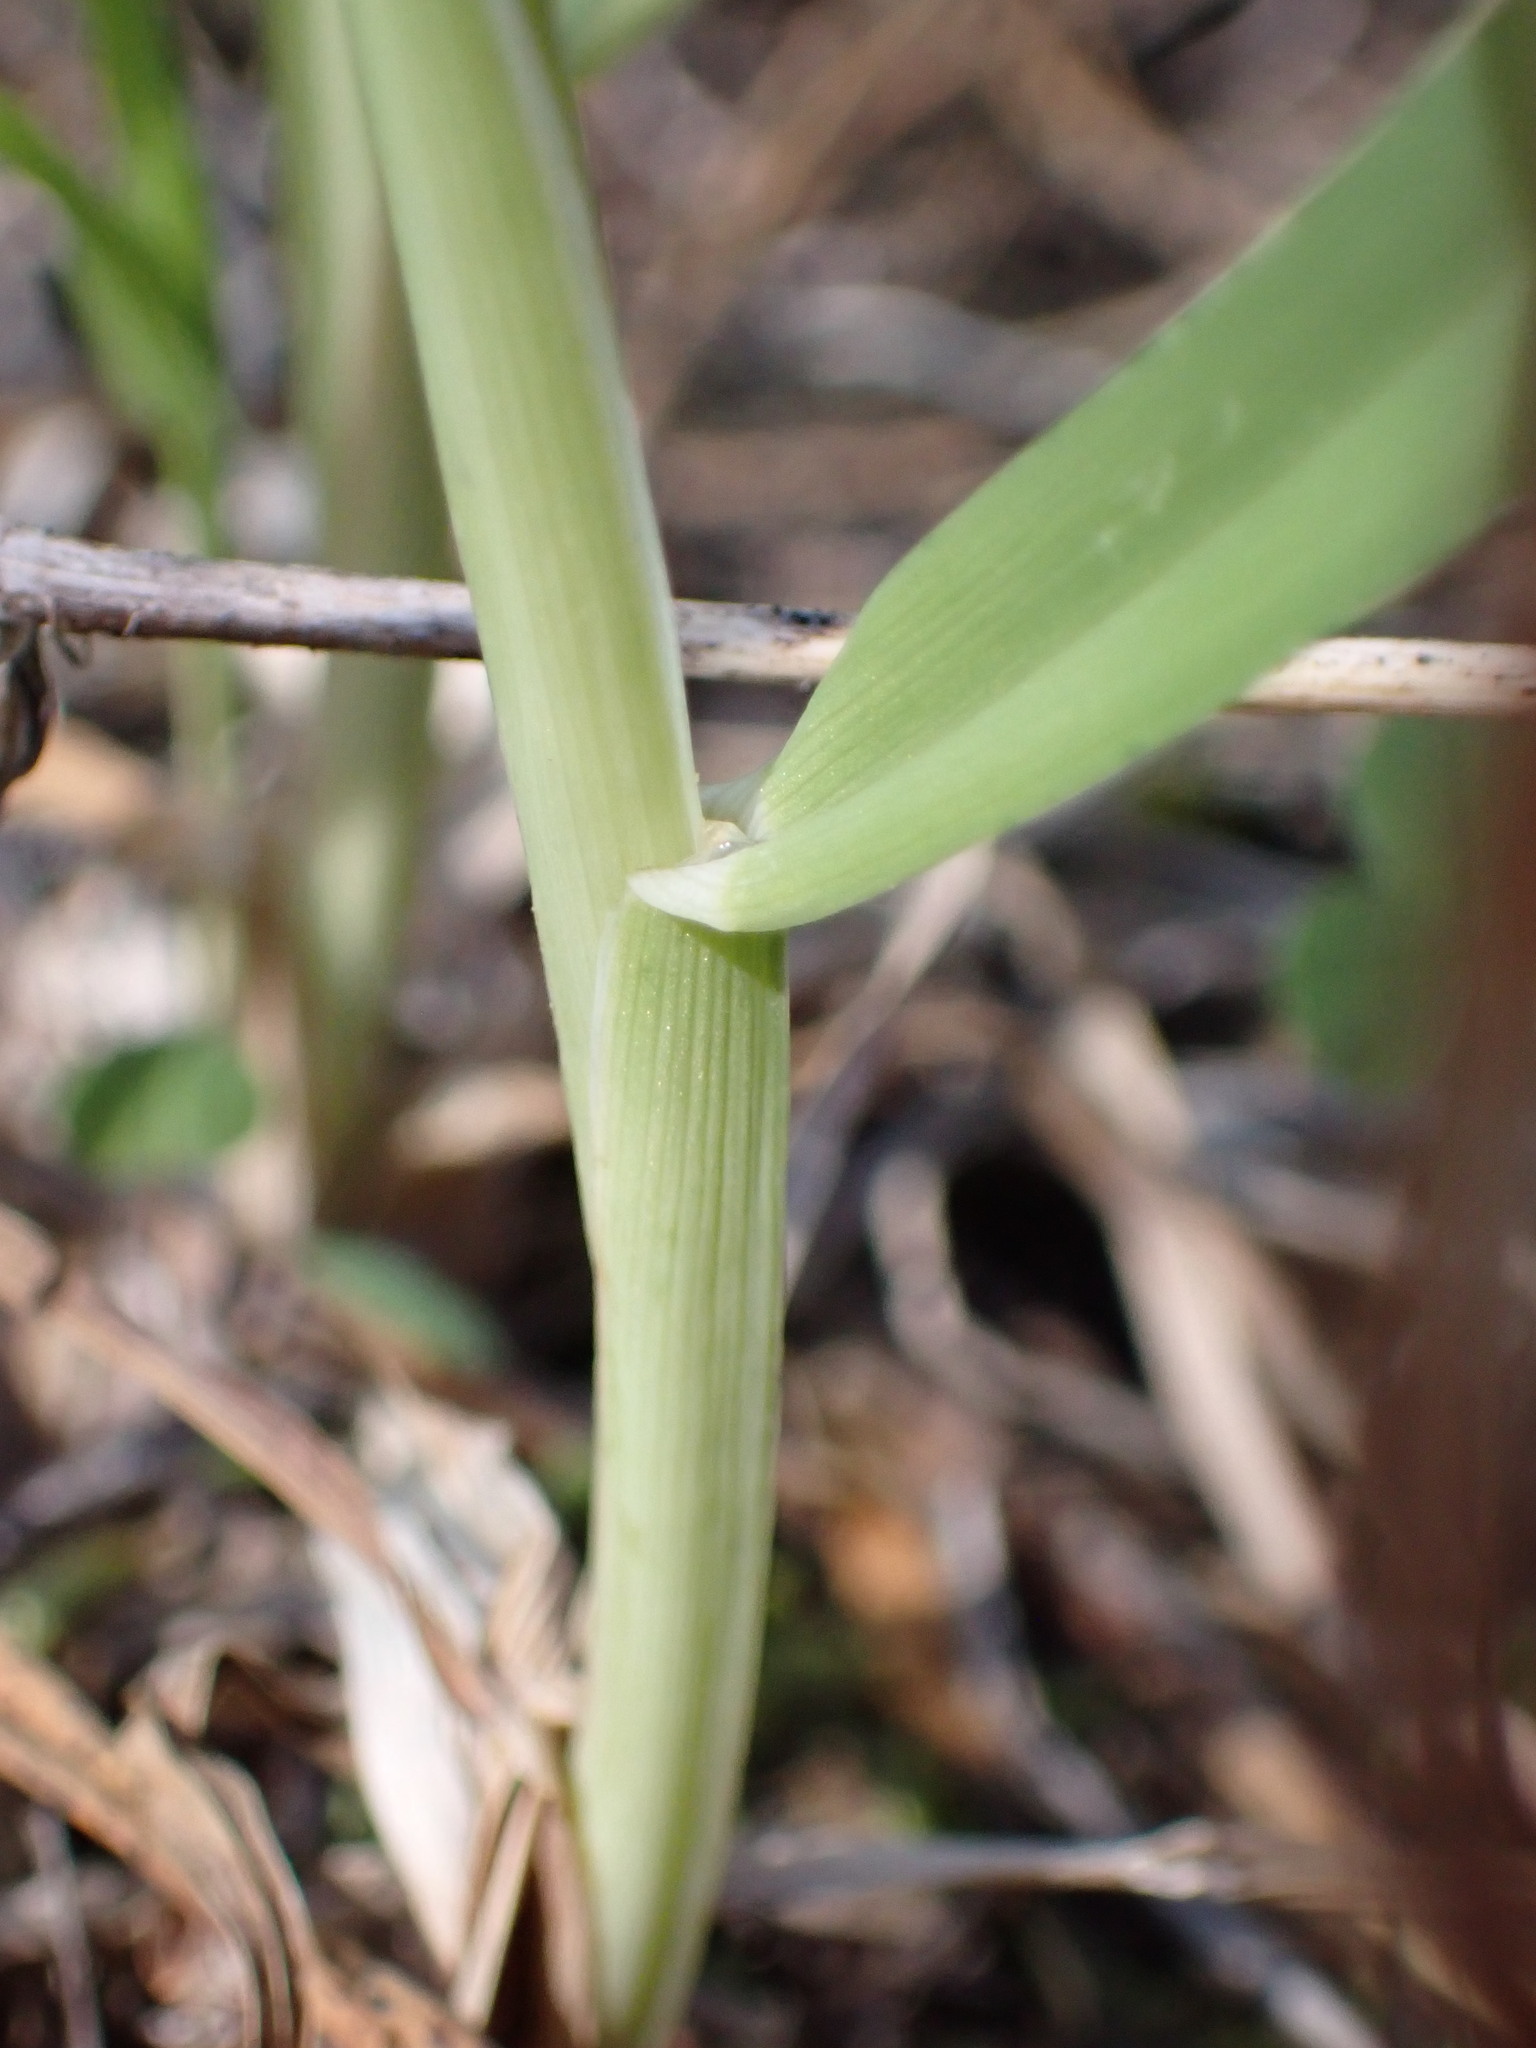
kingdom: Plantae
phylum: Tracheophyta
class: Liliopsida
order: Poales
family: Poaceae
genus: Dactylis
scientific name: Dactylis glomerata
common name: Orchardgrass
